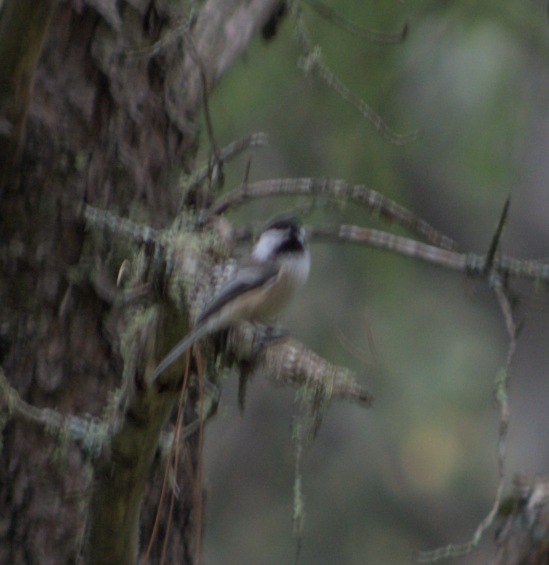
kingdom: Animalia
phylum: Chordata
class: Aves
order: Passeriformes
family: Paridae
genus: Poecile
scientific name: Poecile atricapillus
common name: Black-capped chickadee
